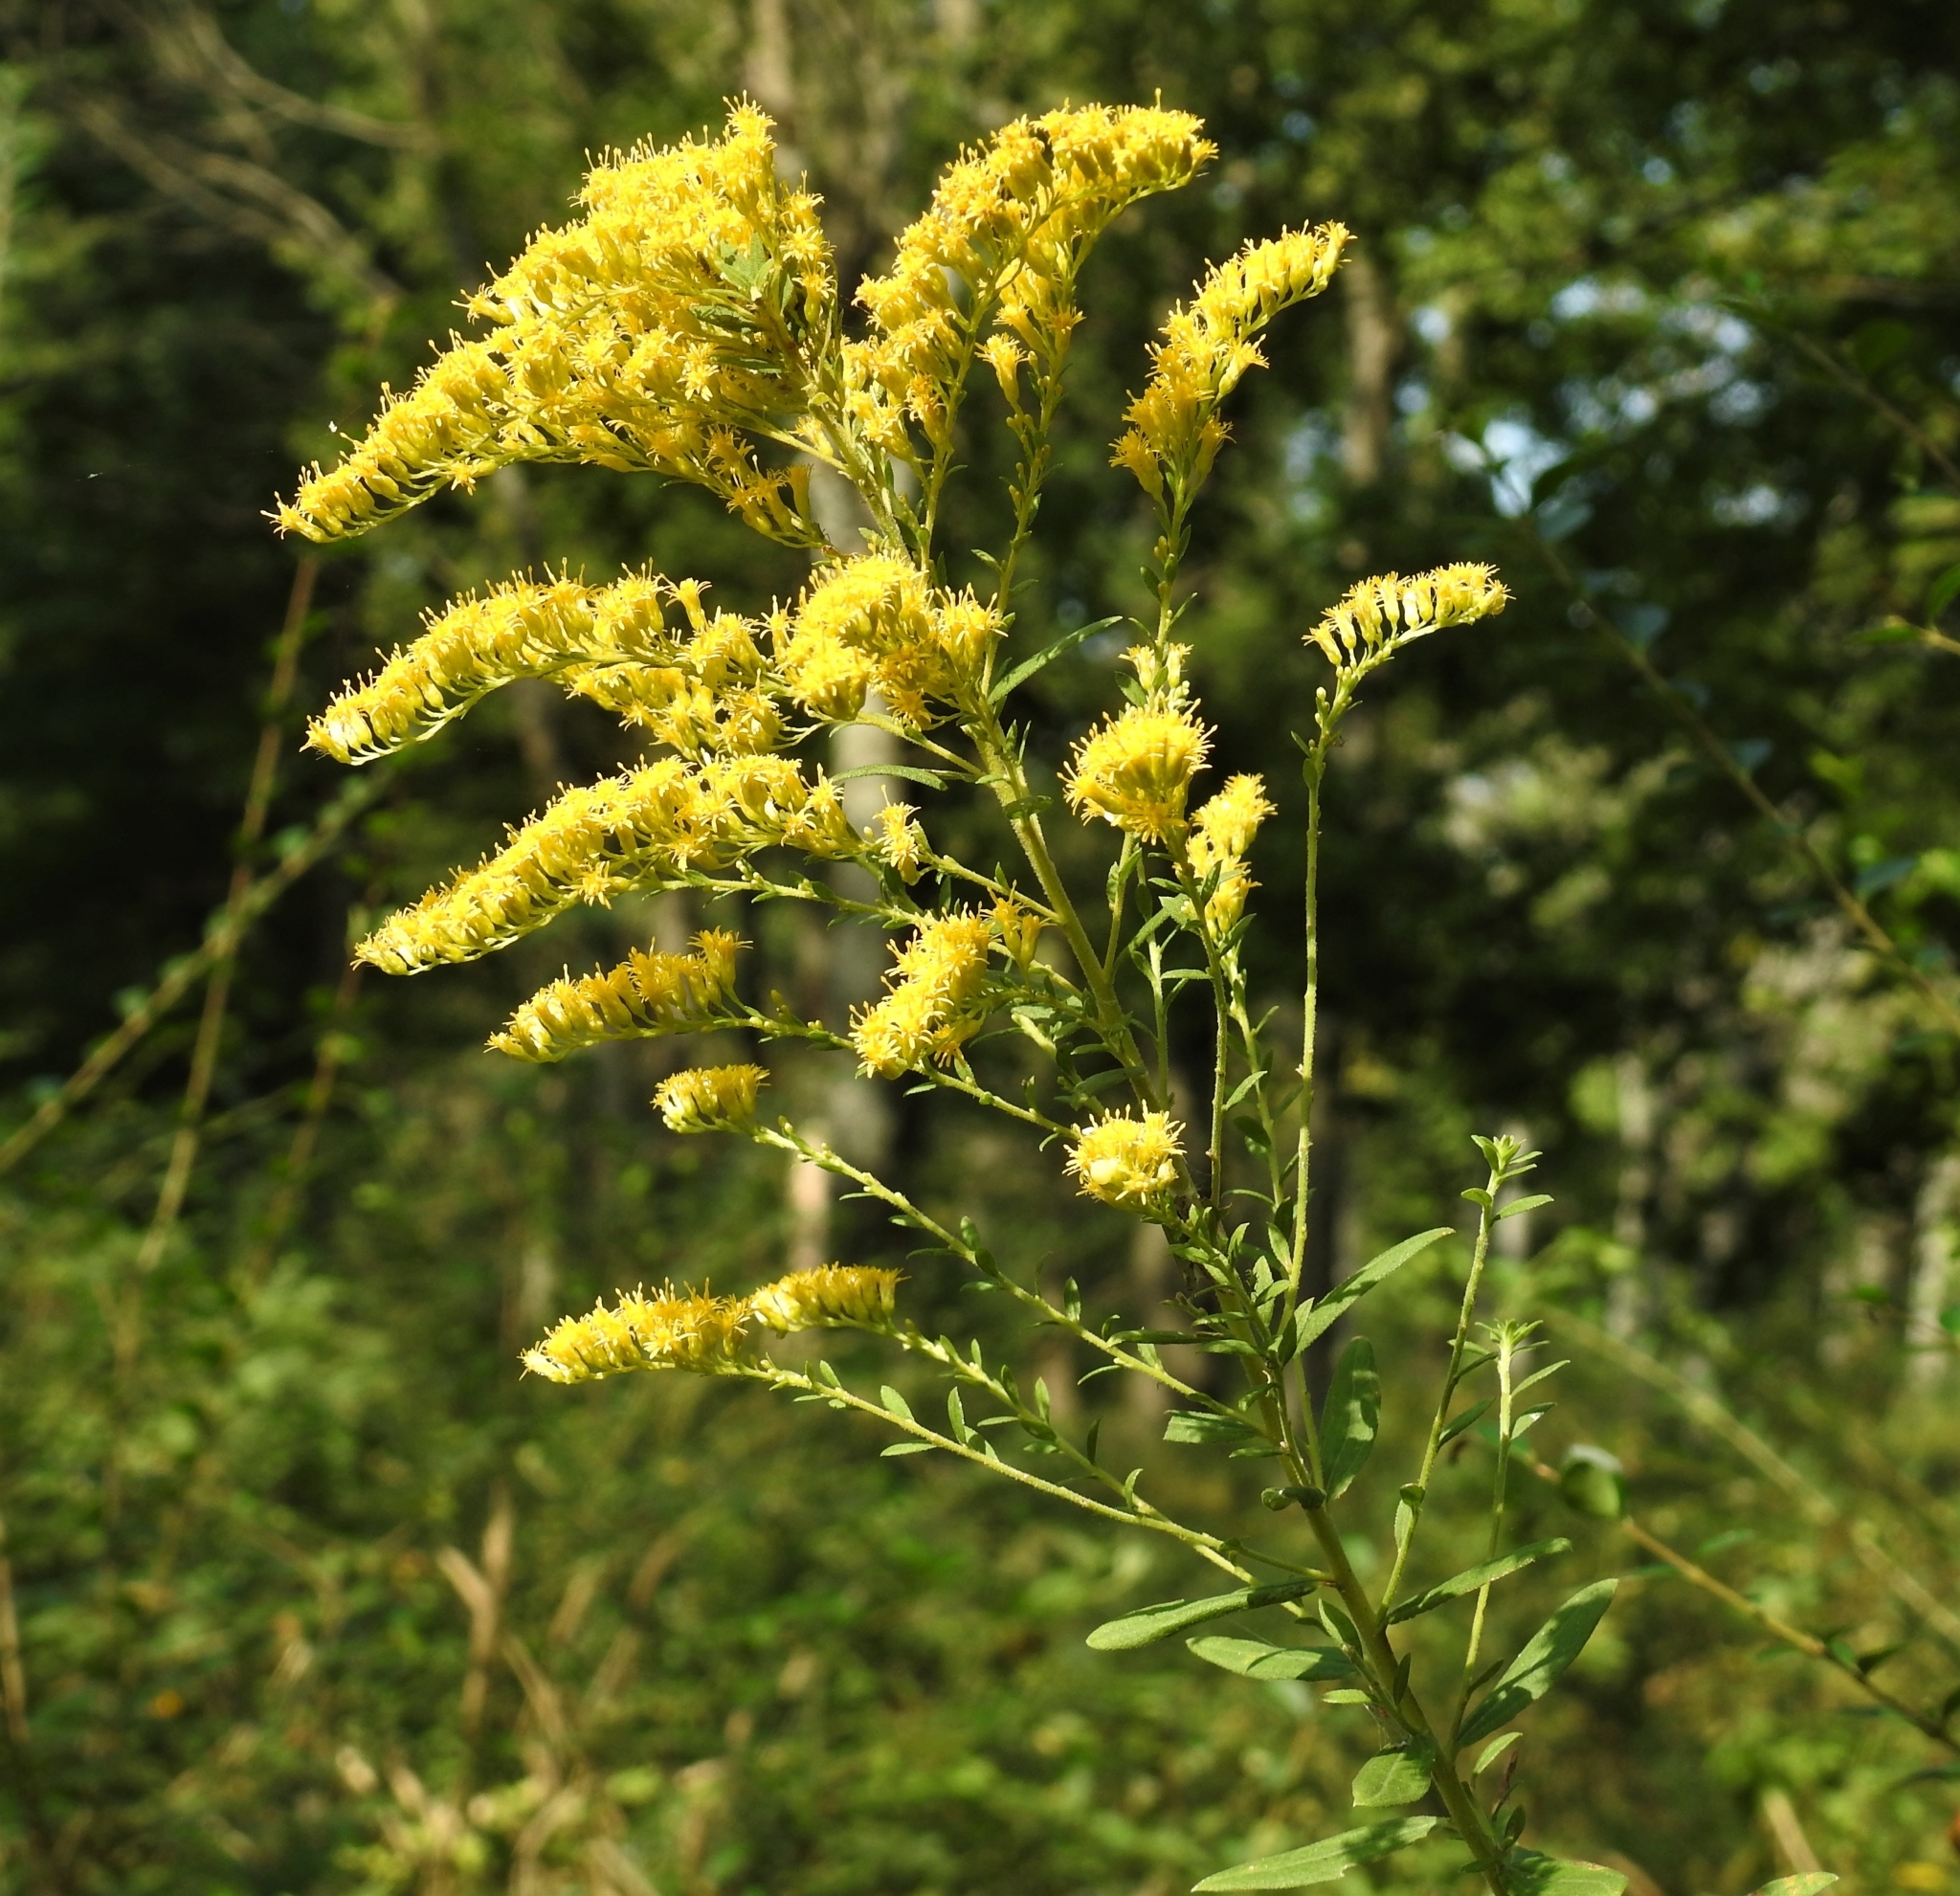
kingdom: Plantae
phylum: Tracheophyta
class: Magnoliopsida
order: Asterales
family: Asteraceae
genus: Solidago
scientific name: Solidago altissima
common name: Late goldenrod
